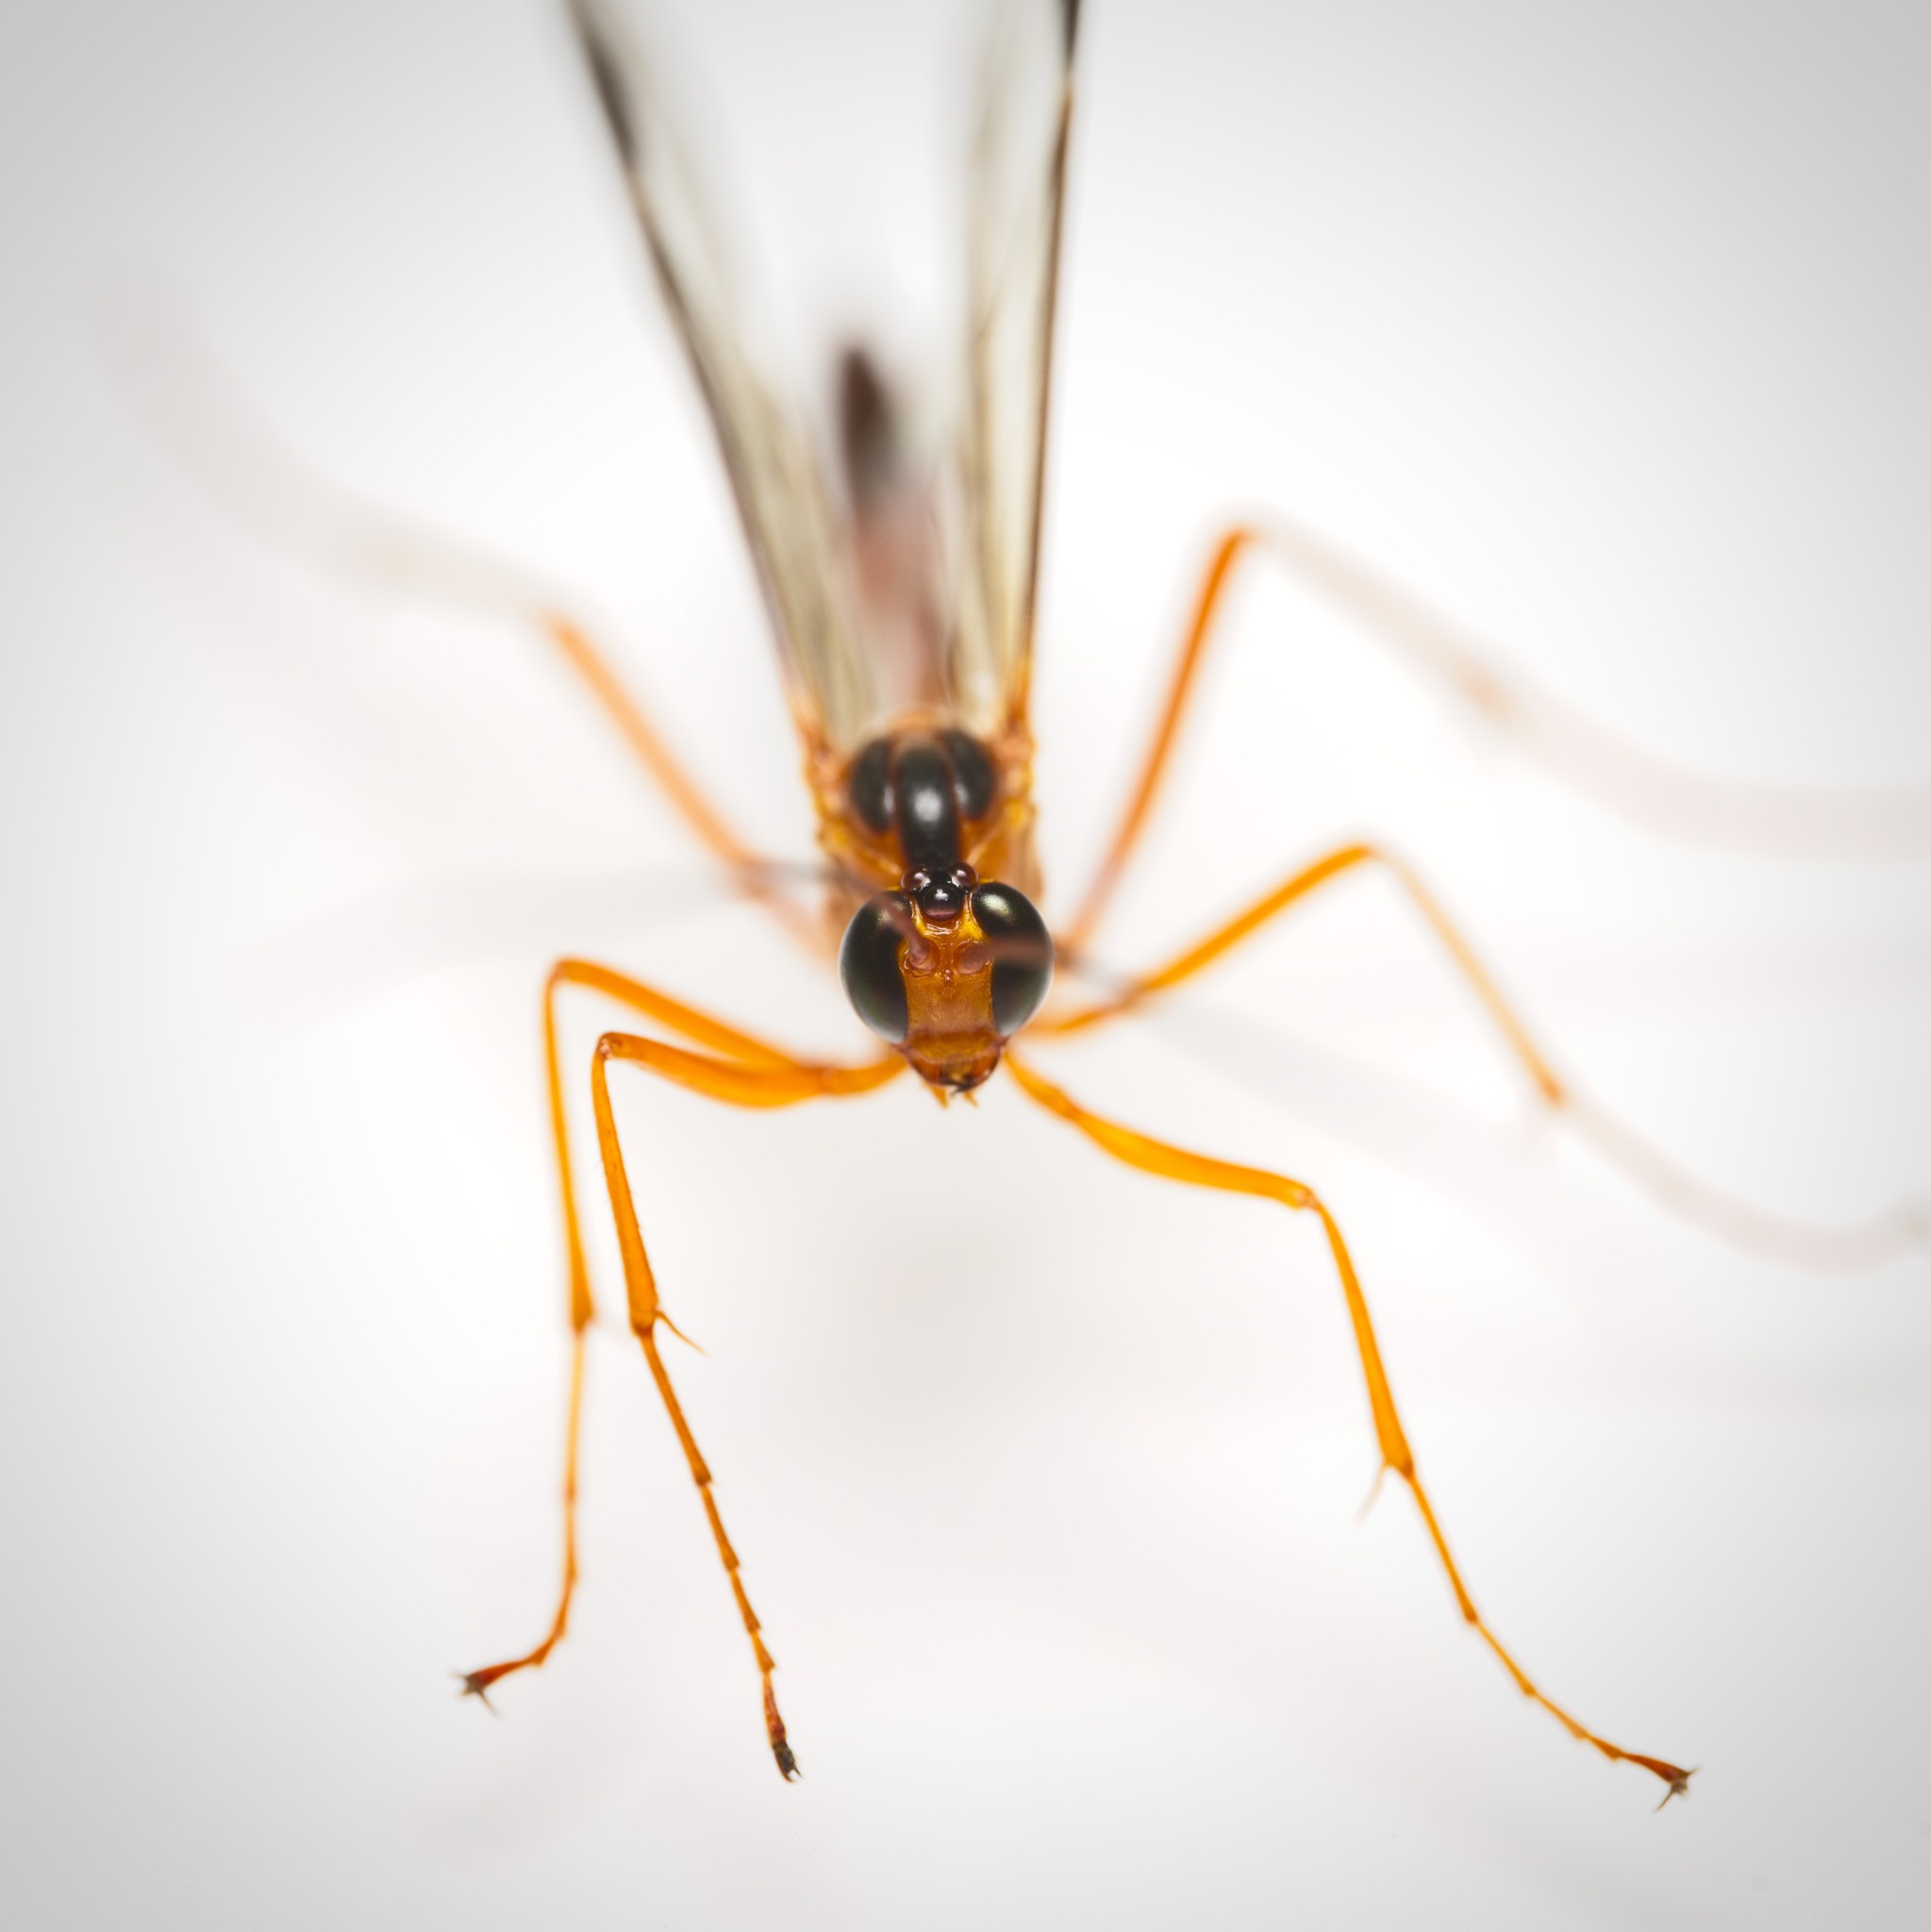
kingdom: Animalia
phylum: Arthropoda
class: Insecta
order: Hymenoptera
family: Ichneumonidae
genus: Netelia
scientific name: Netelia ephippiata
